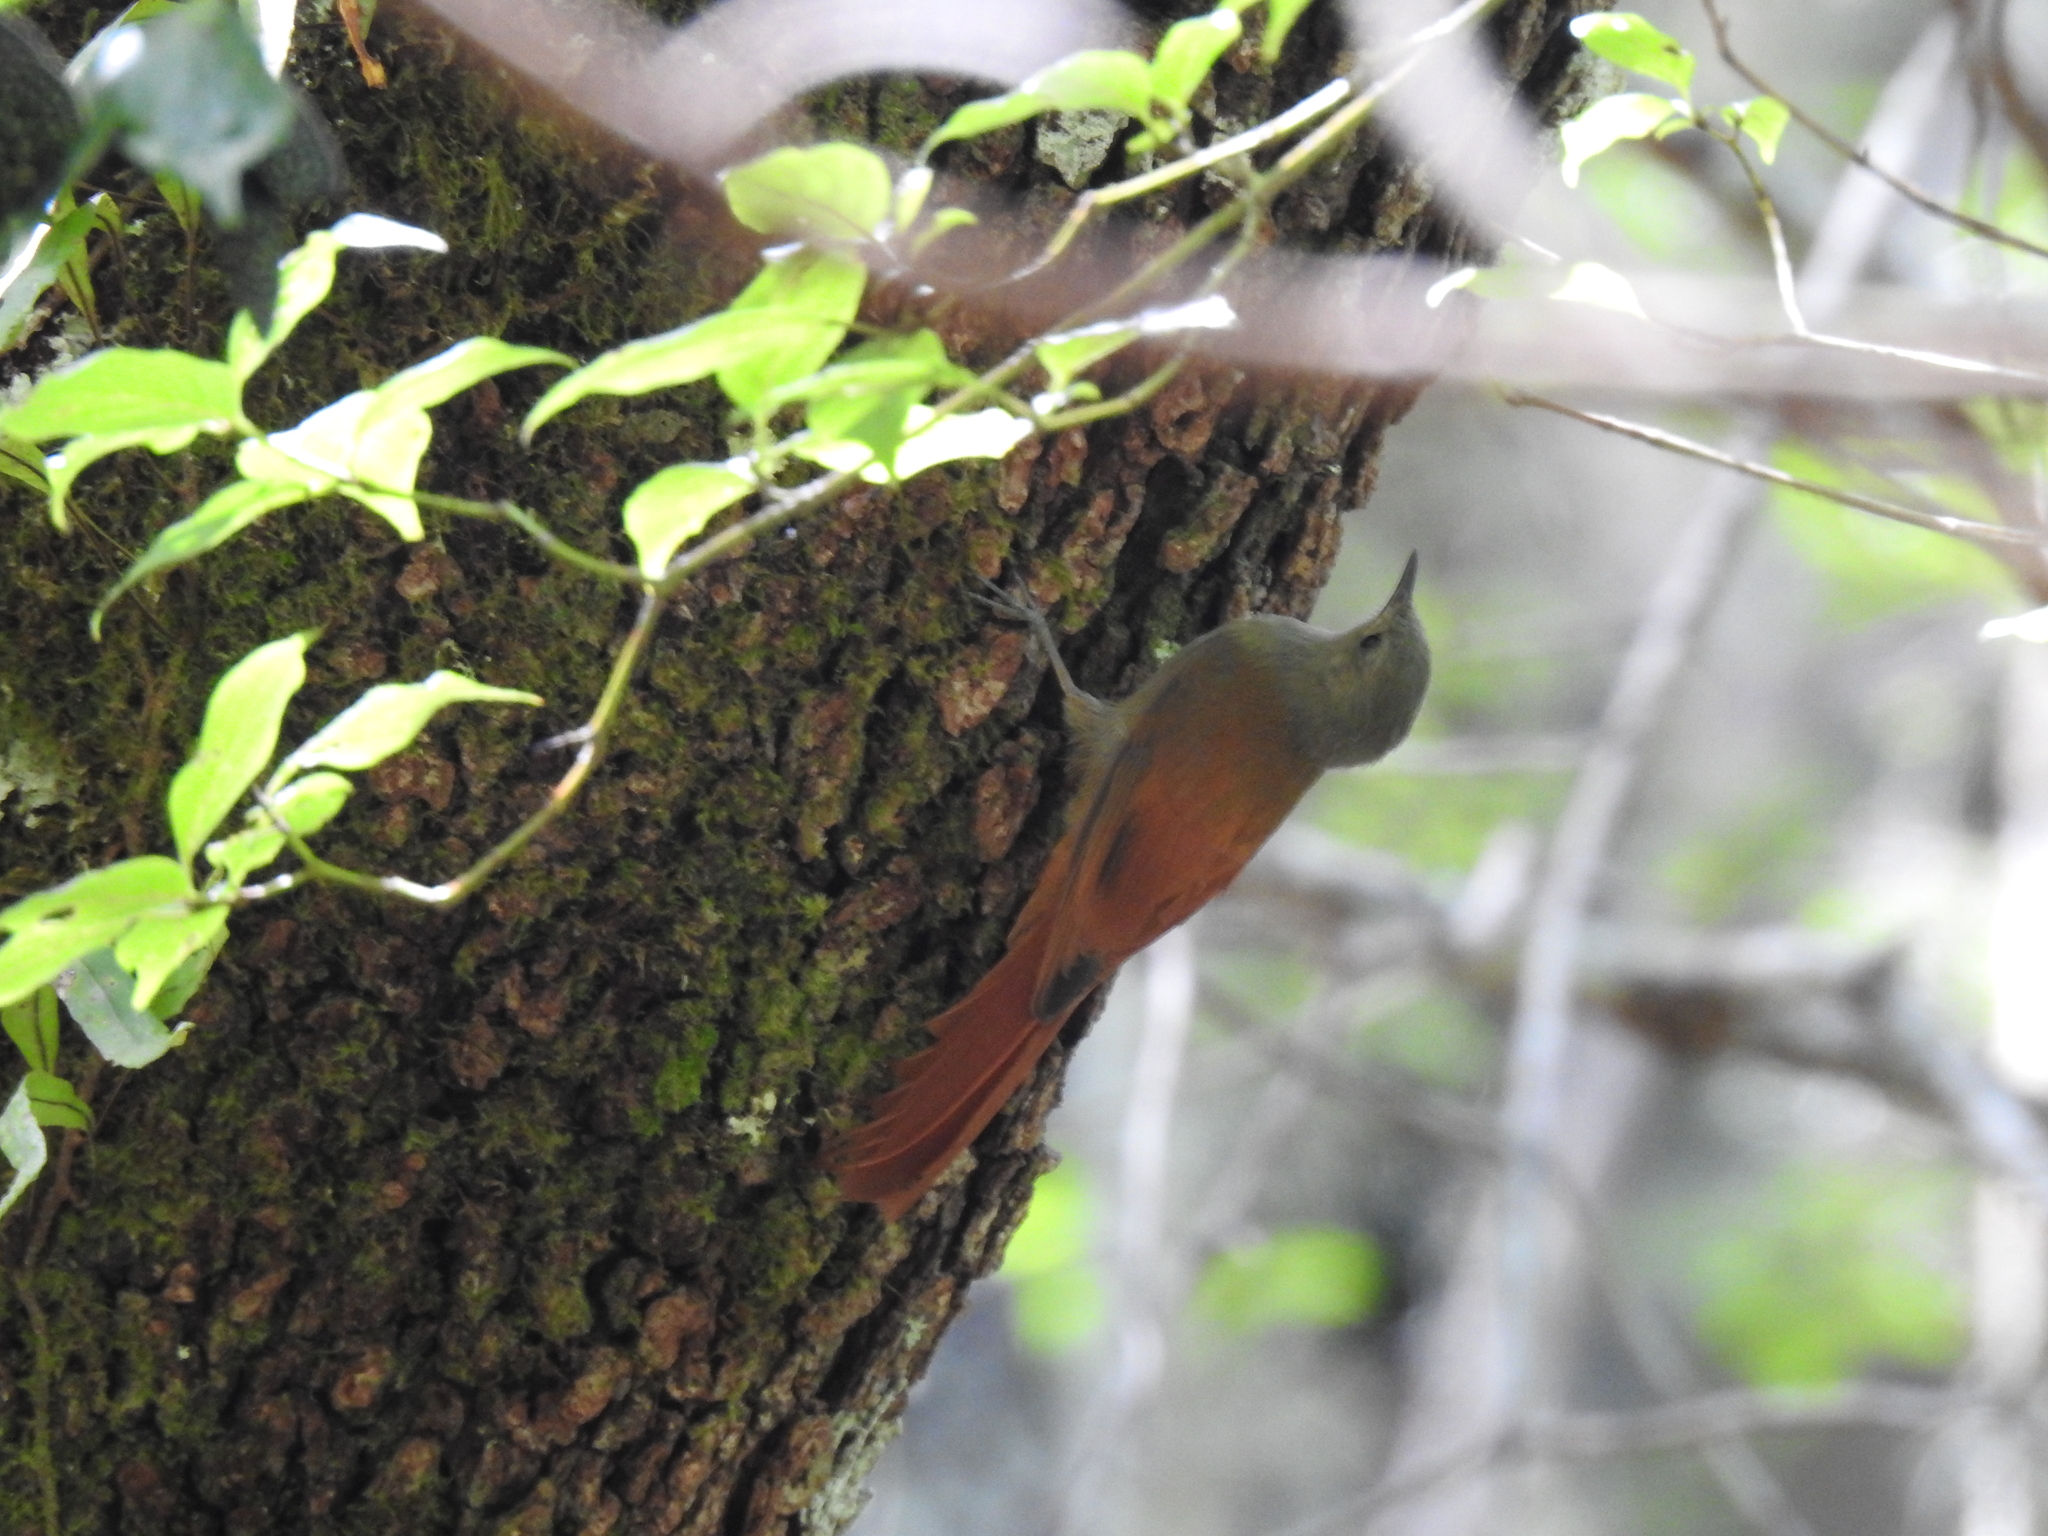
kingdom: Animalia
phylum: Chordata
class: Aves
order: Passeriformes
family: Furnariidae
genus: Sittasomus
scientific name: Sittasomus griseicapillus
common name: Olivaceous woodcreeper
